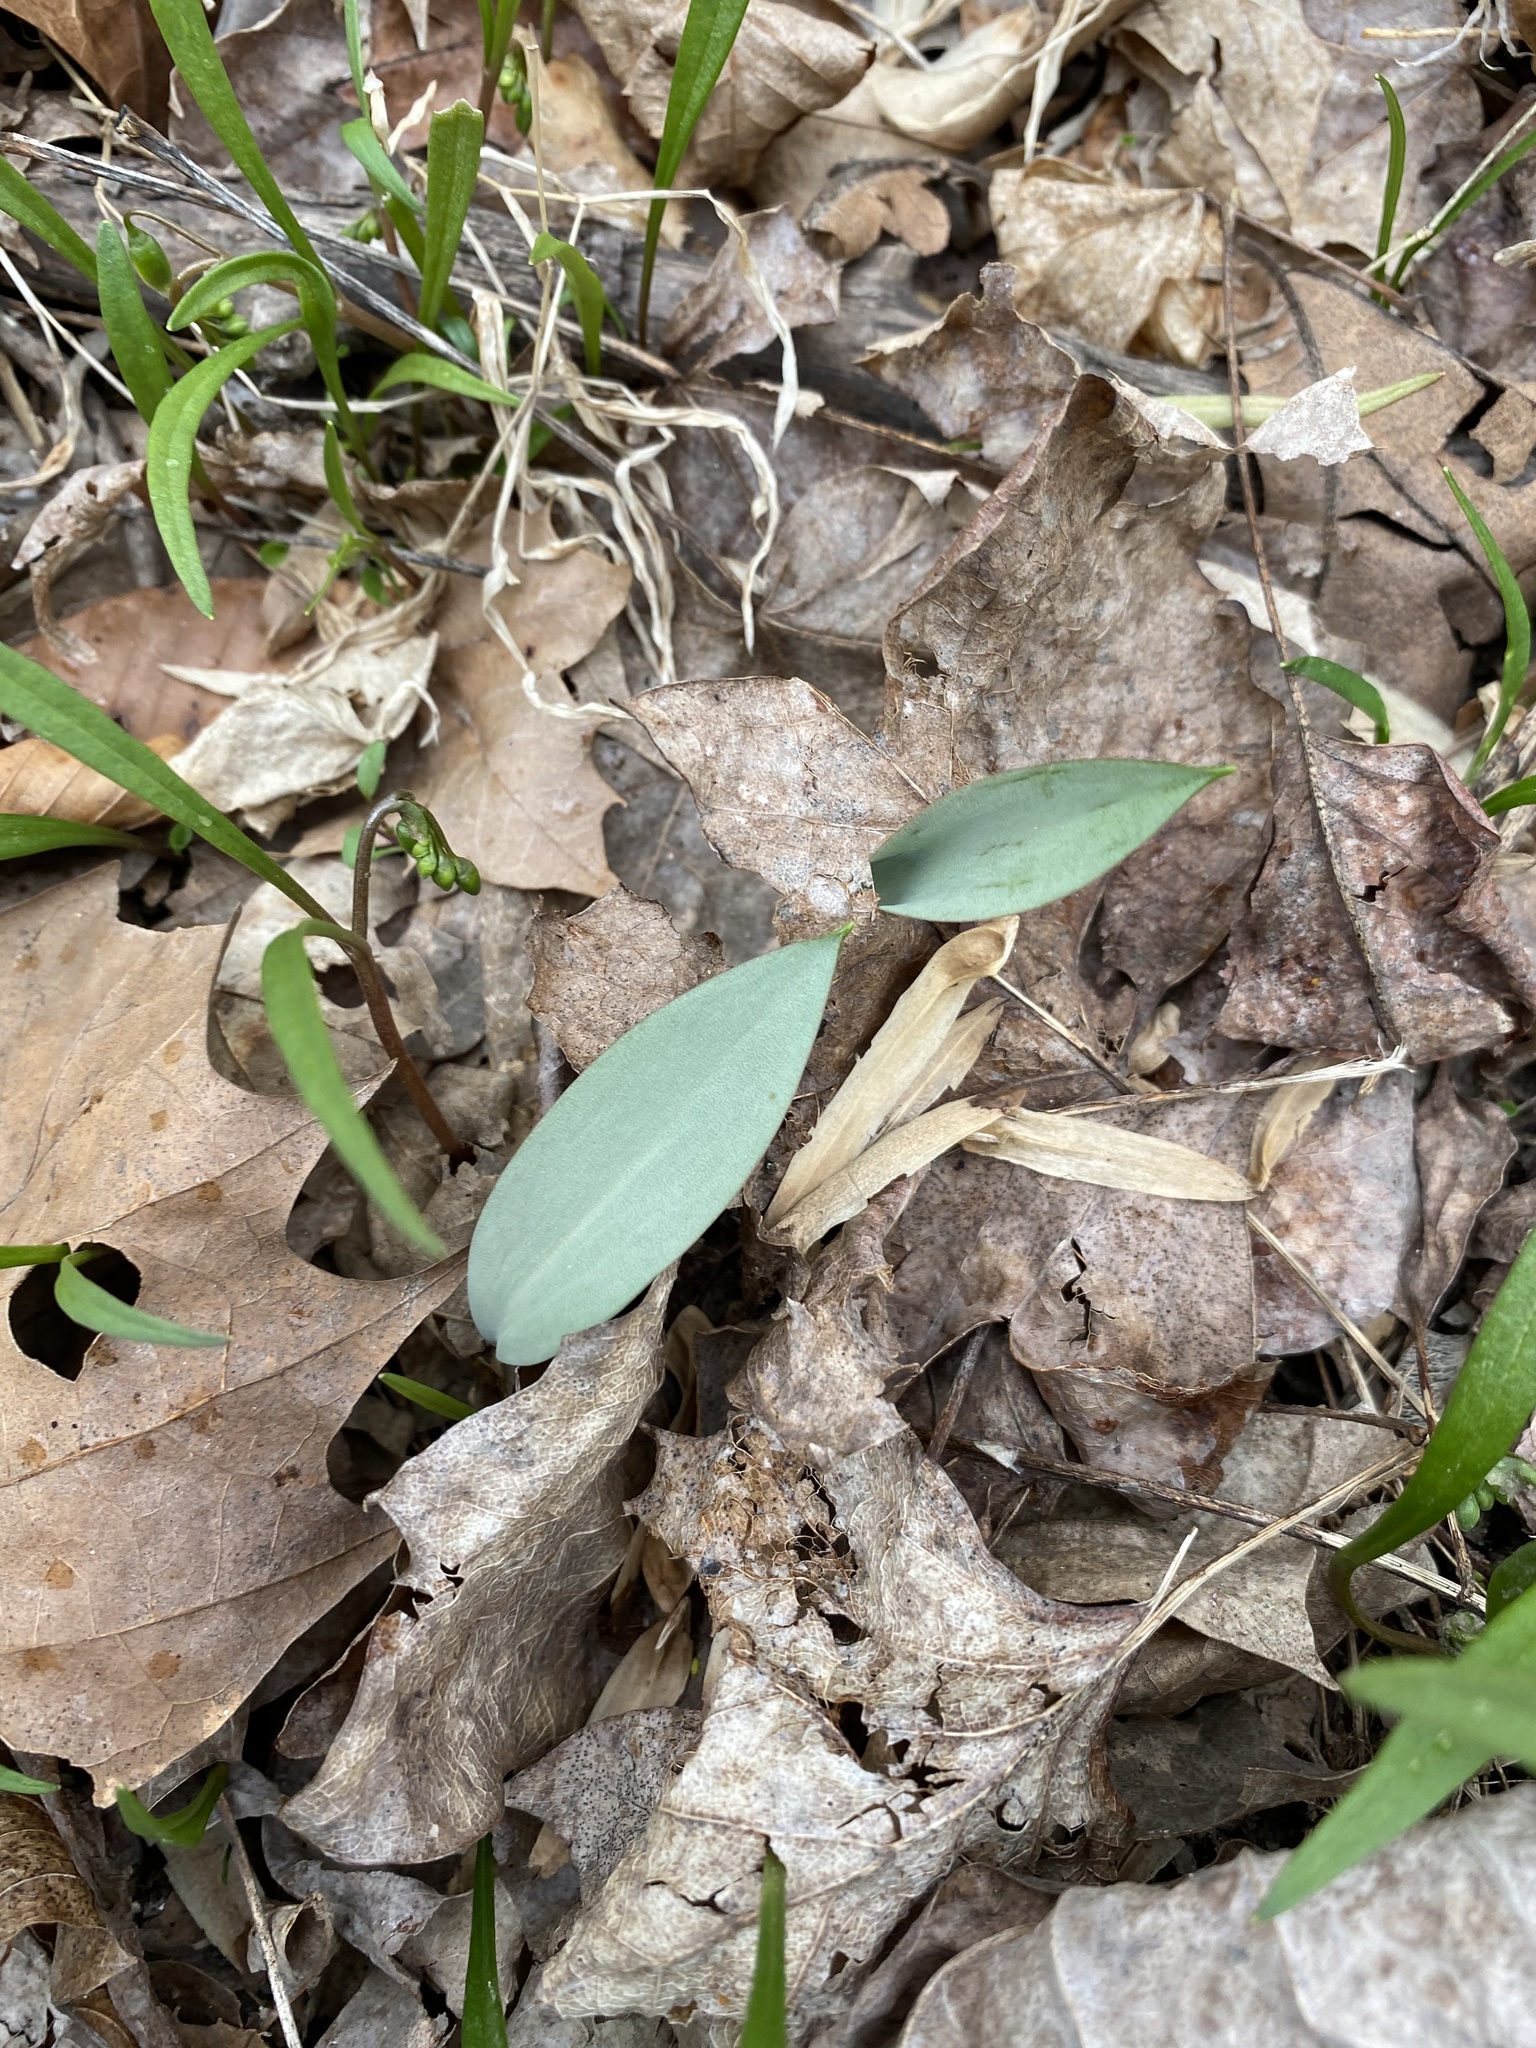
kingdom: Plantae
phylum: Tracheophyta
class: Liliopsida
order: Liliales
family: Liliaceae
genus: Erythronium
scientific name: Erythronium americanum
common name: Yellow adder's-tongue
